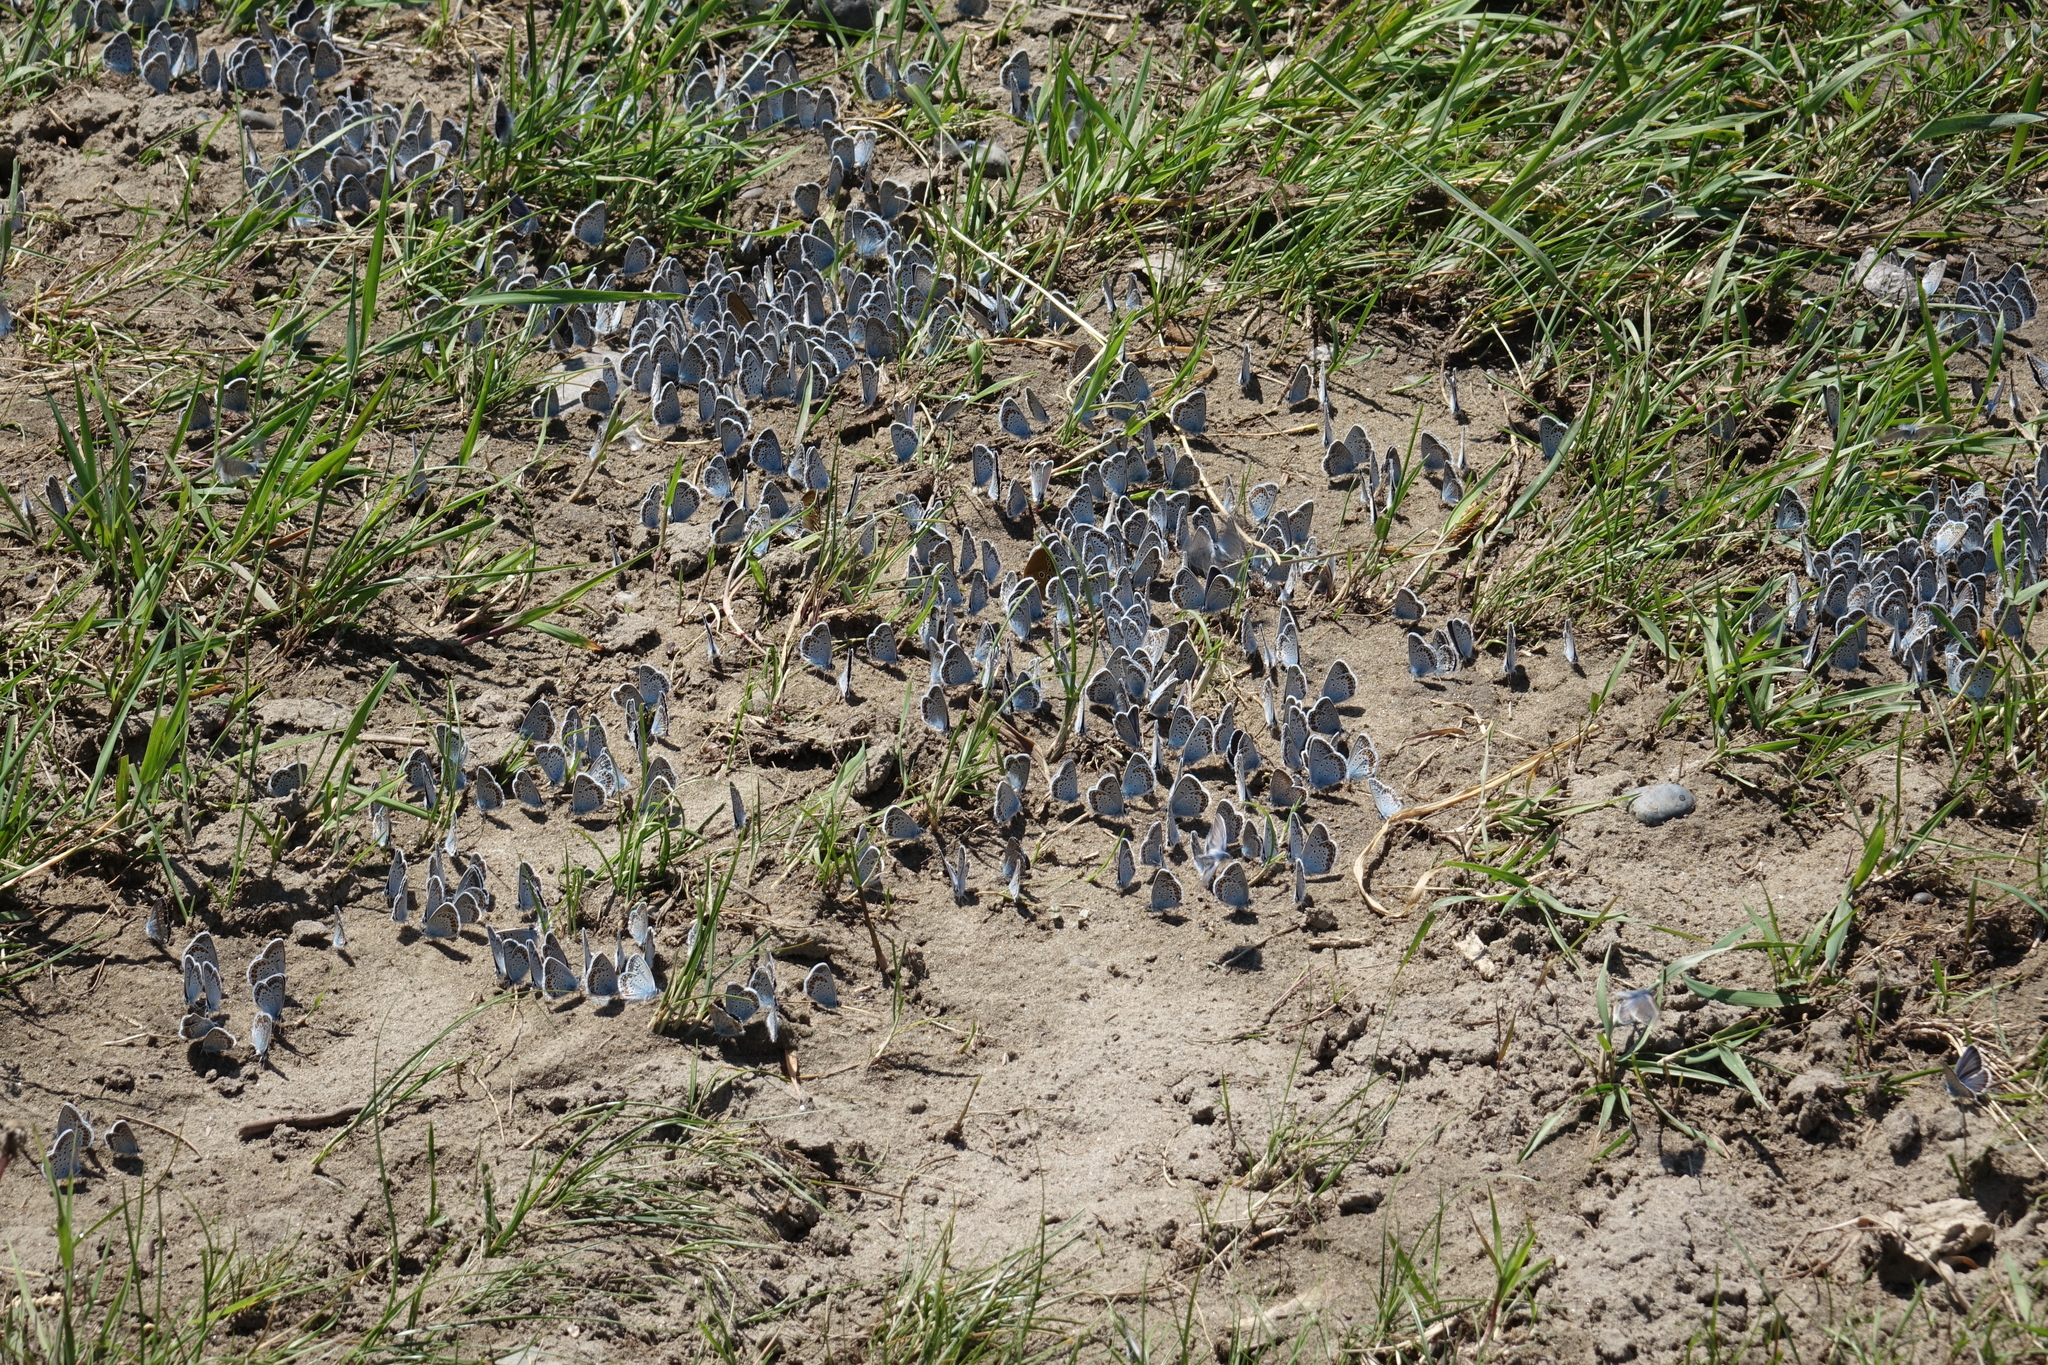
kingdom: Animalia
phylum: Arthropoda
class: Insecta
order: Lepidoptera
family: Lycaenidae
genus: Plebejus
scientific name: Plebejus argus
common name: Silver-studded blue
